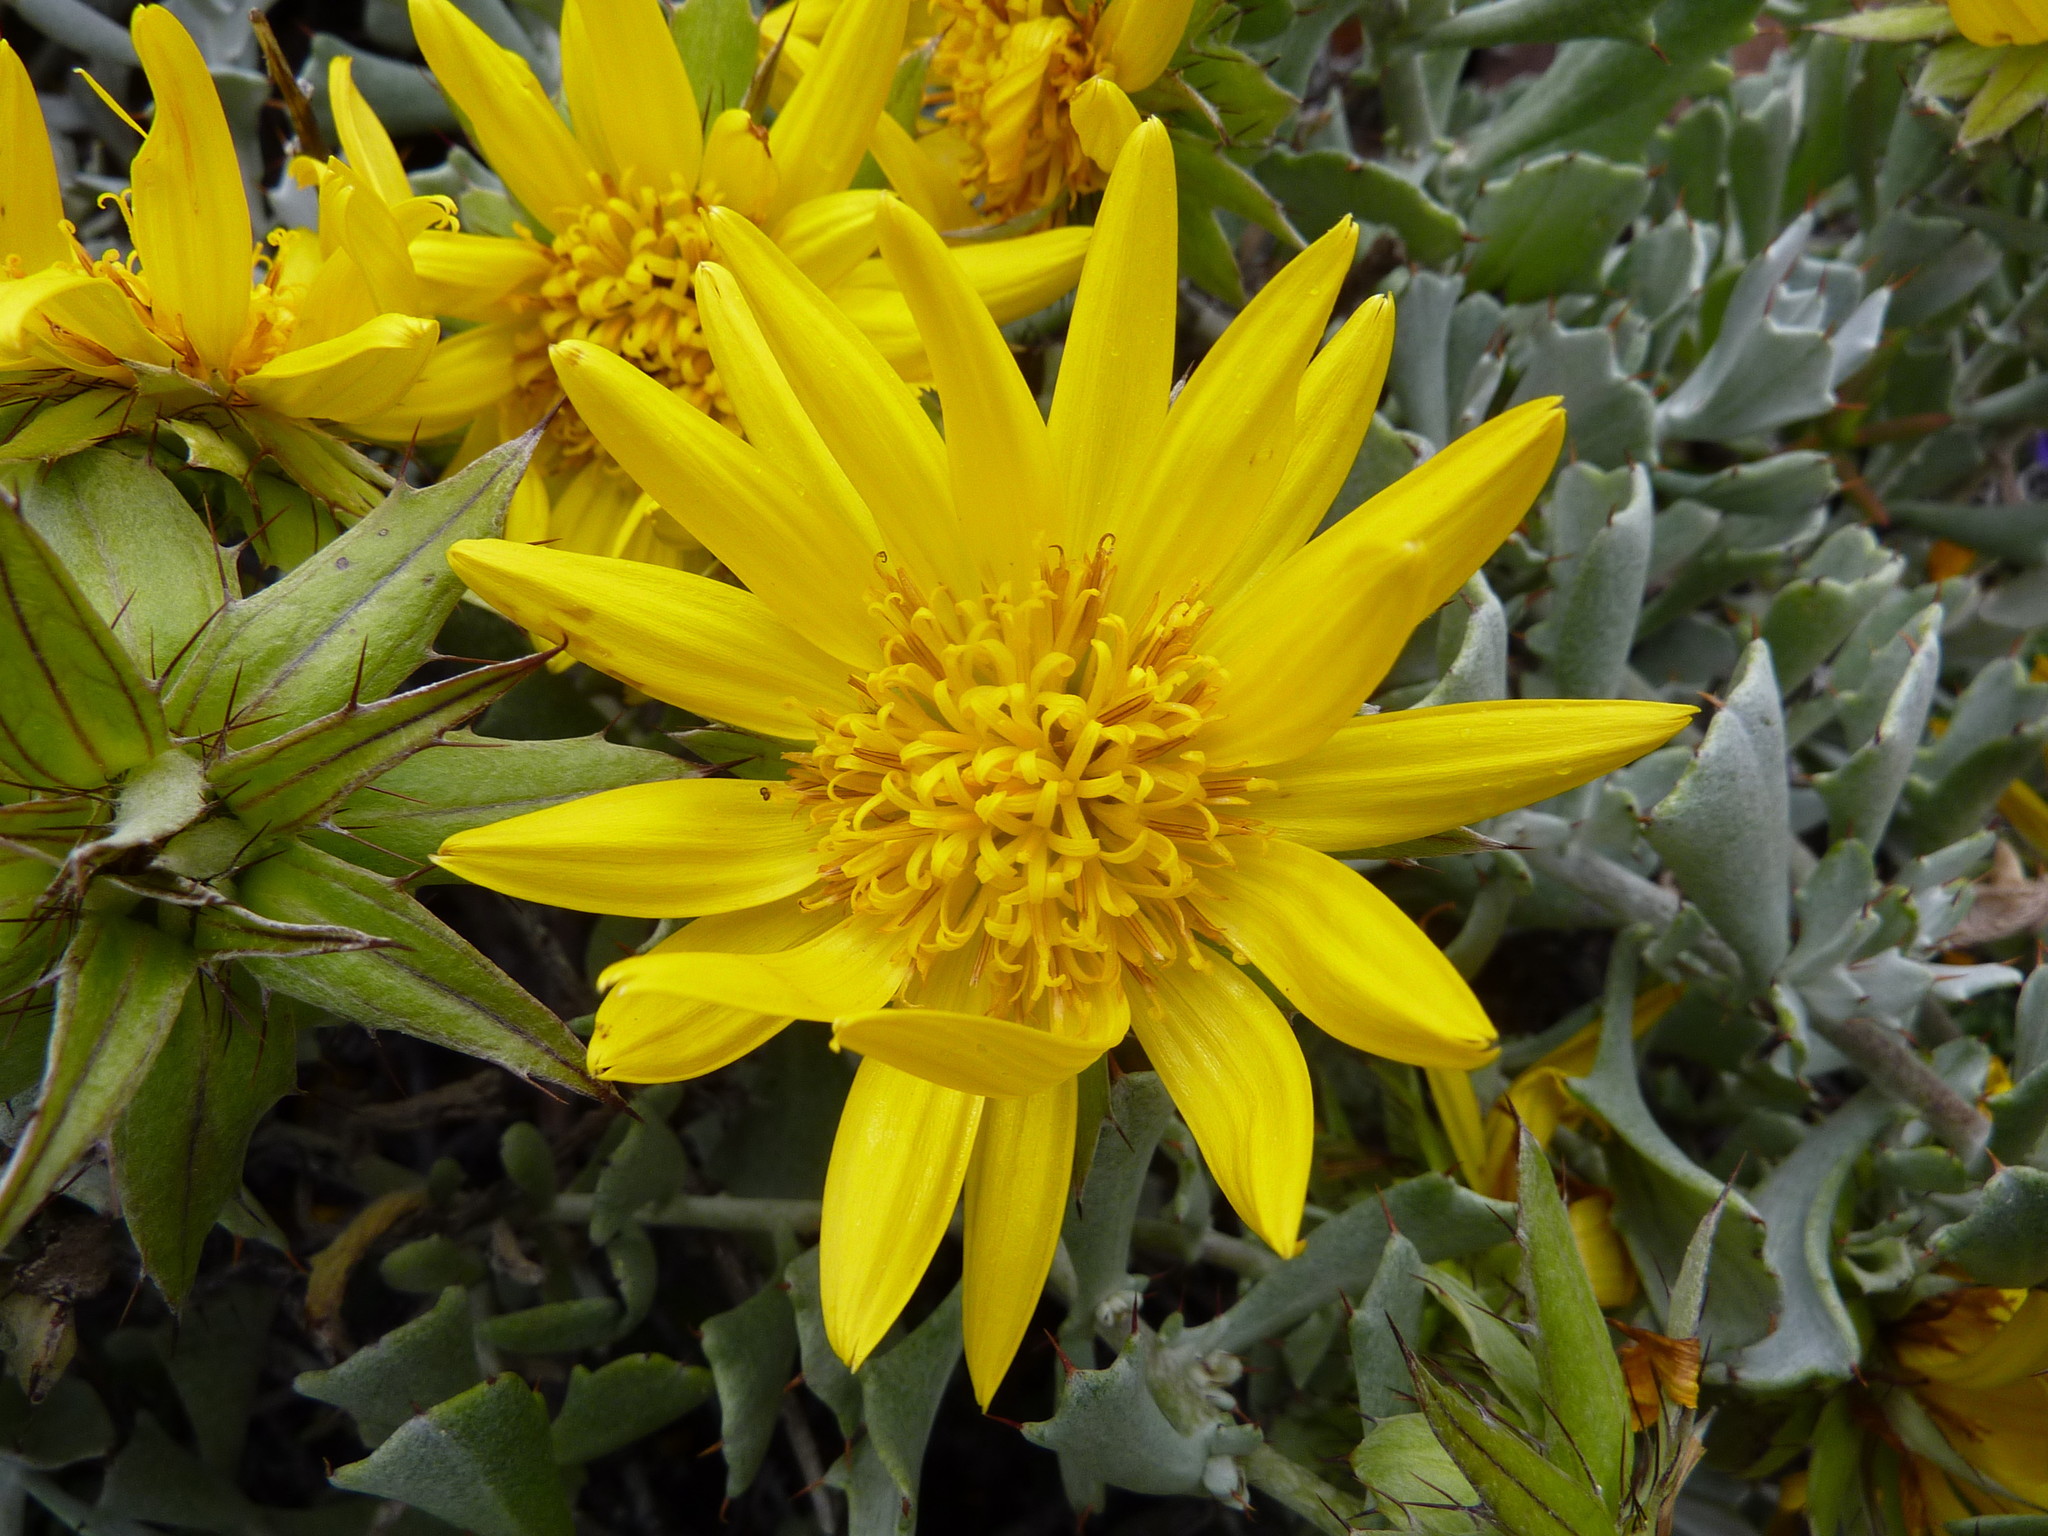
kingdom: Plantae
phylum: Tracheophyta
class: Magnoliopsida
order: Asterales
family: Asteraceae
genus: Berkheya
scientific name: Berkheya cuneata
